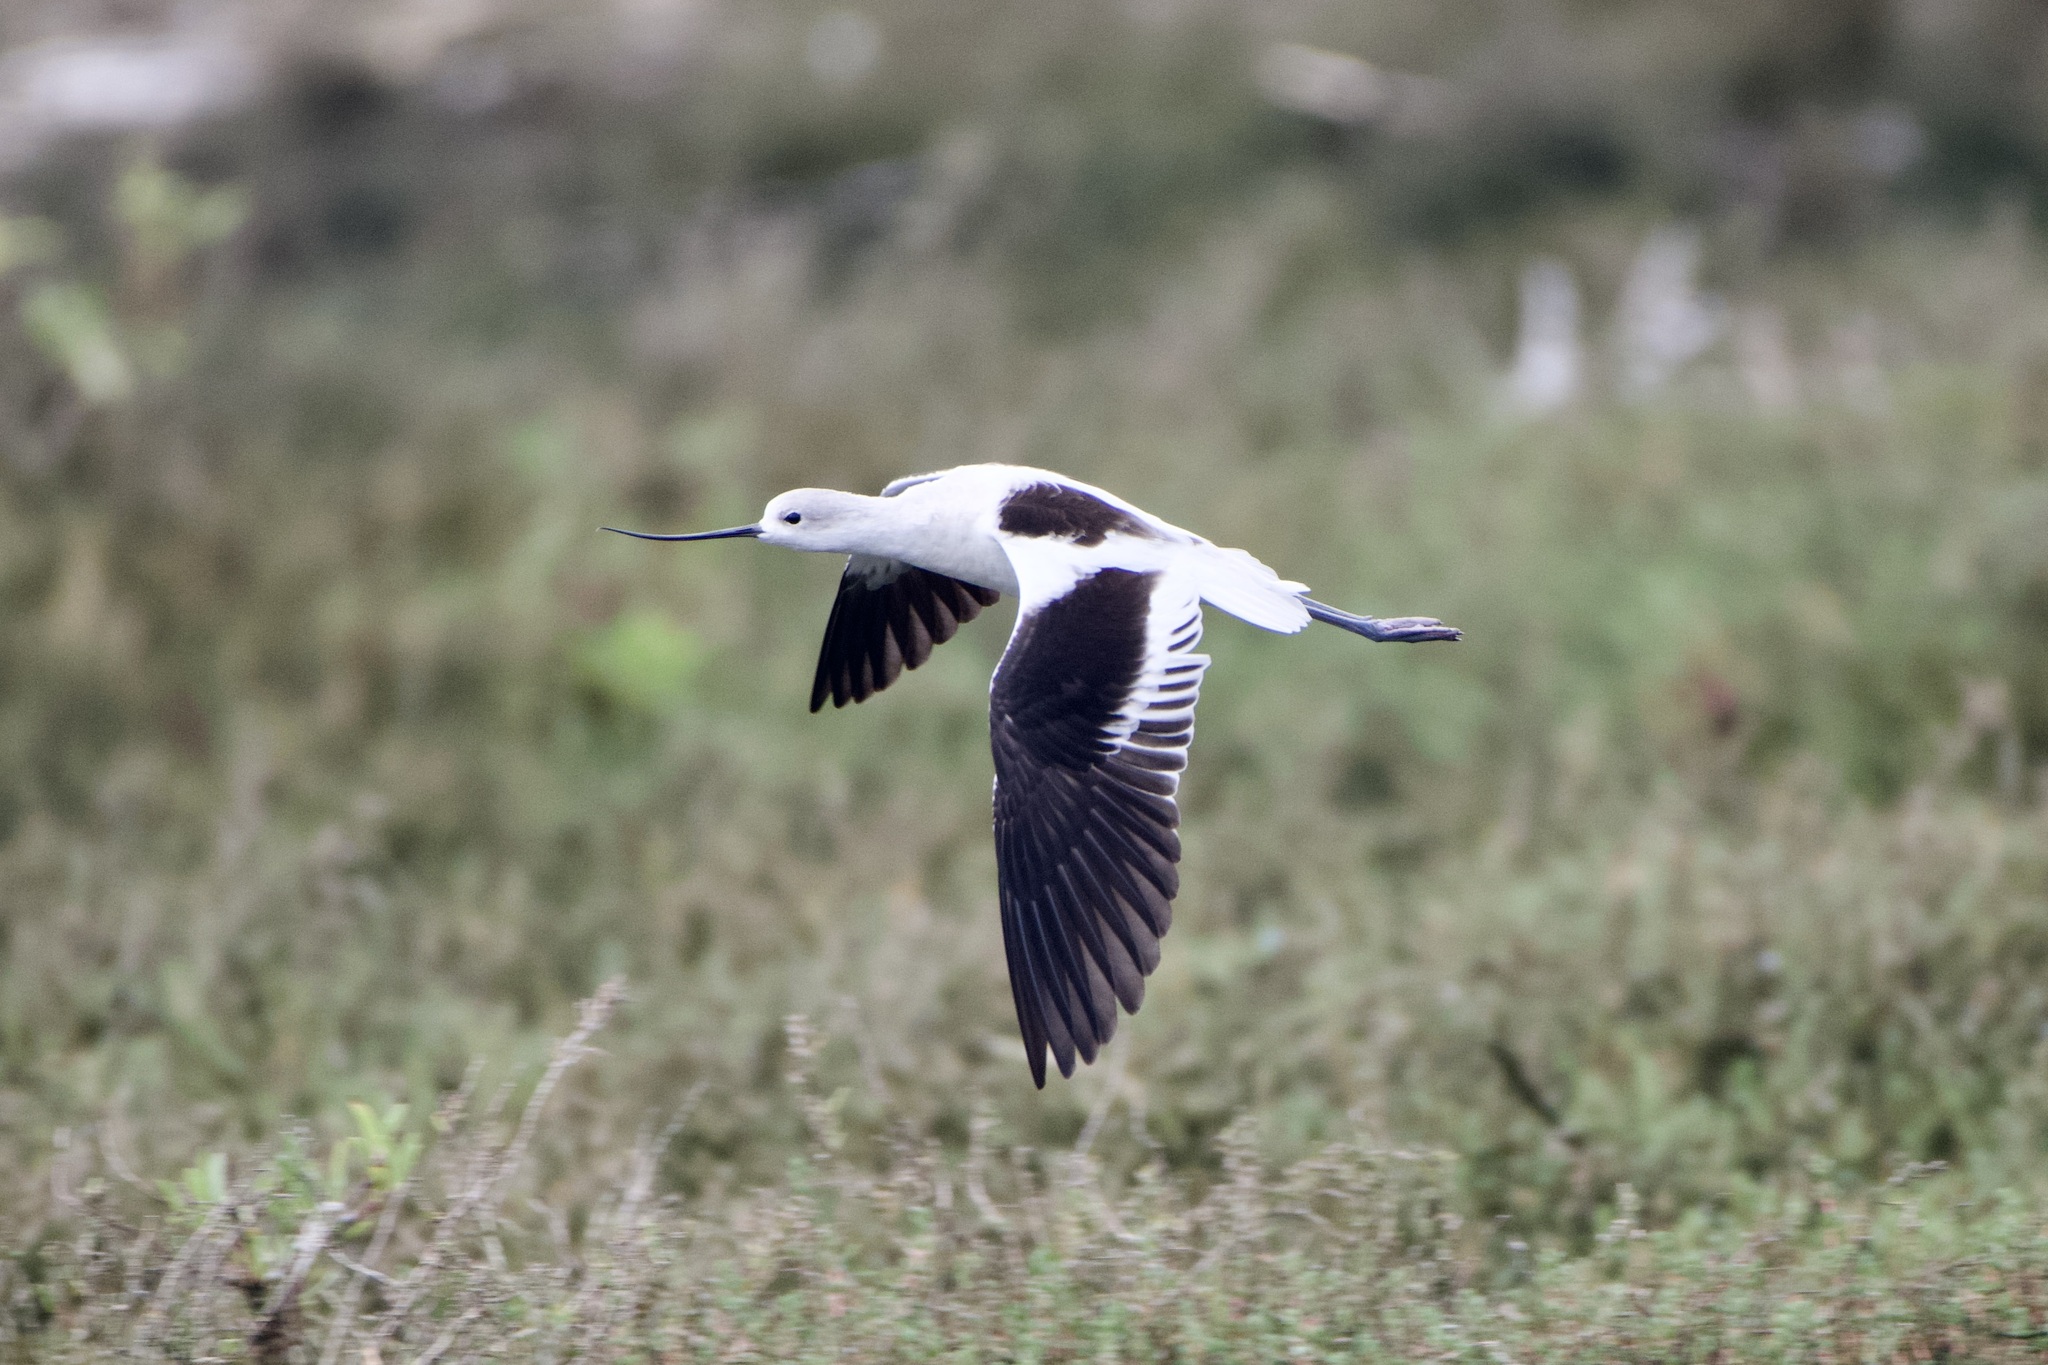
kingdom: Animalia
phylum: Chordata
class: Aves
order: Charadriiformes
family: Recurvirostridae
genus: Recurvirostra
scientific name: Recurvirostra americana
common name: American avocet
